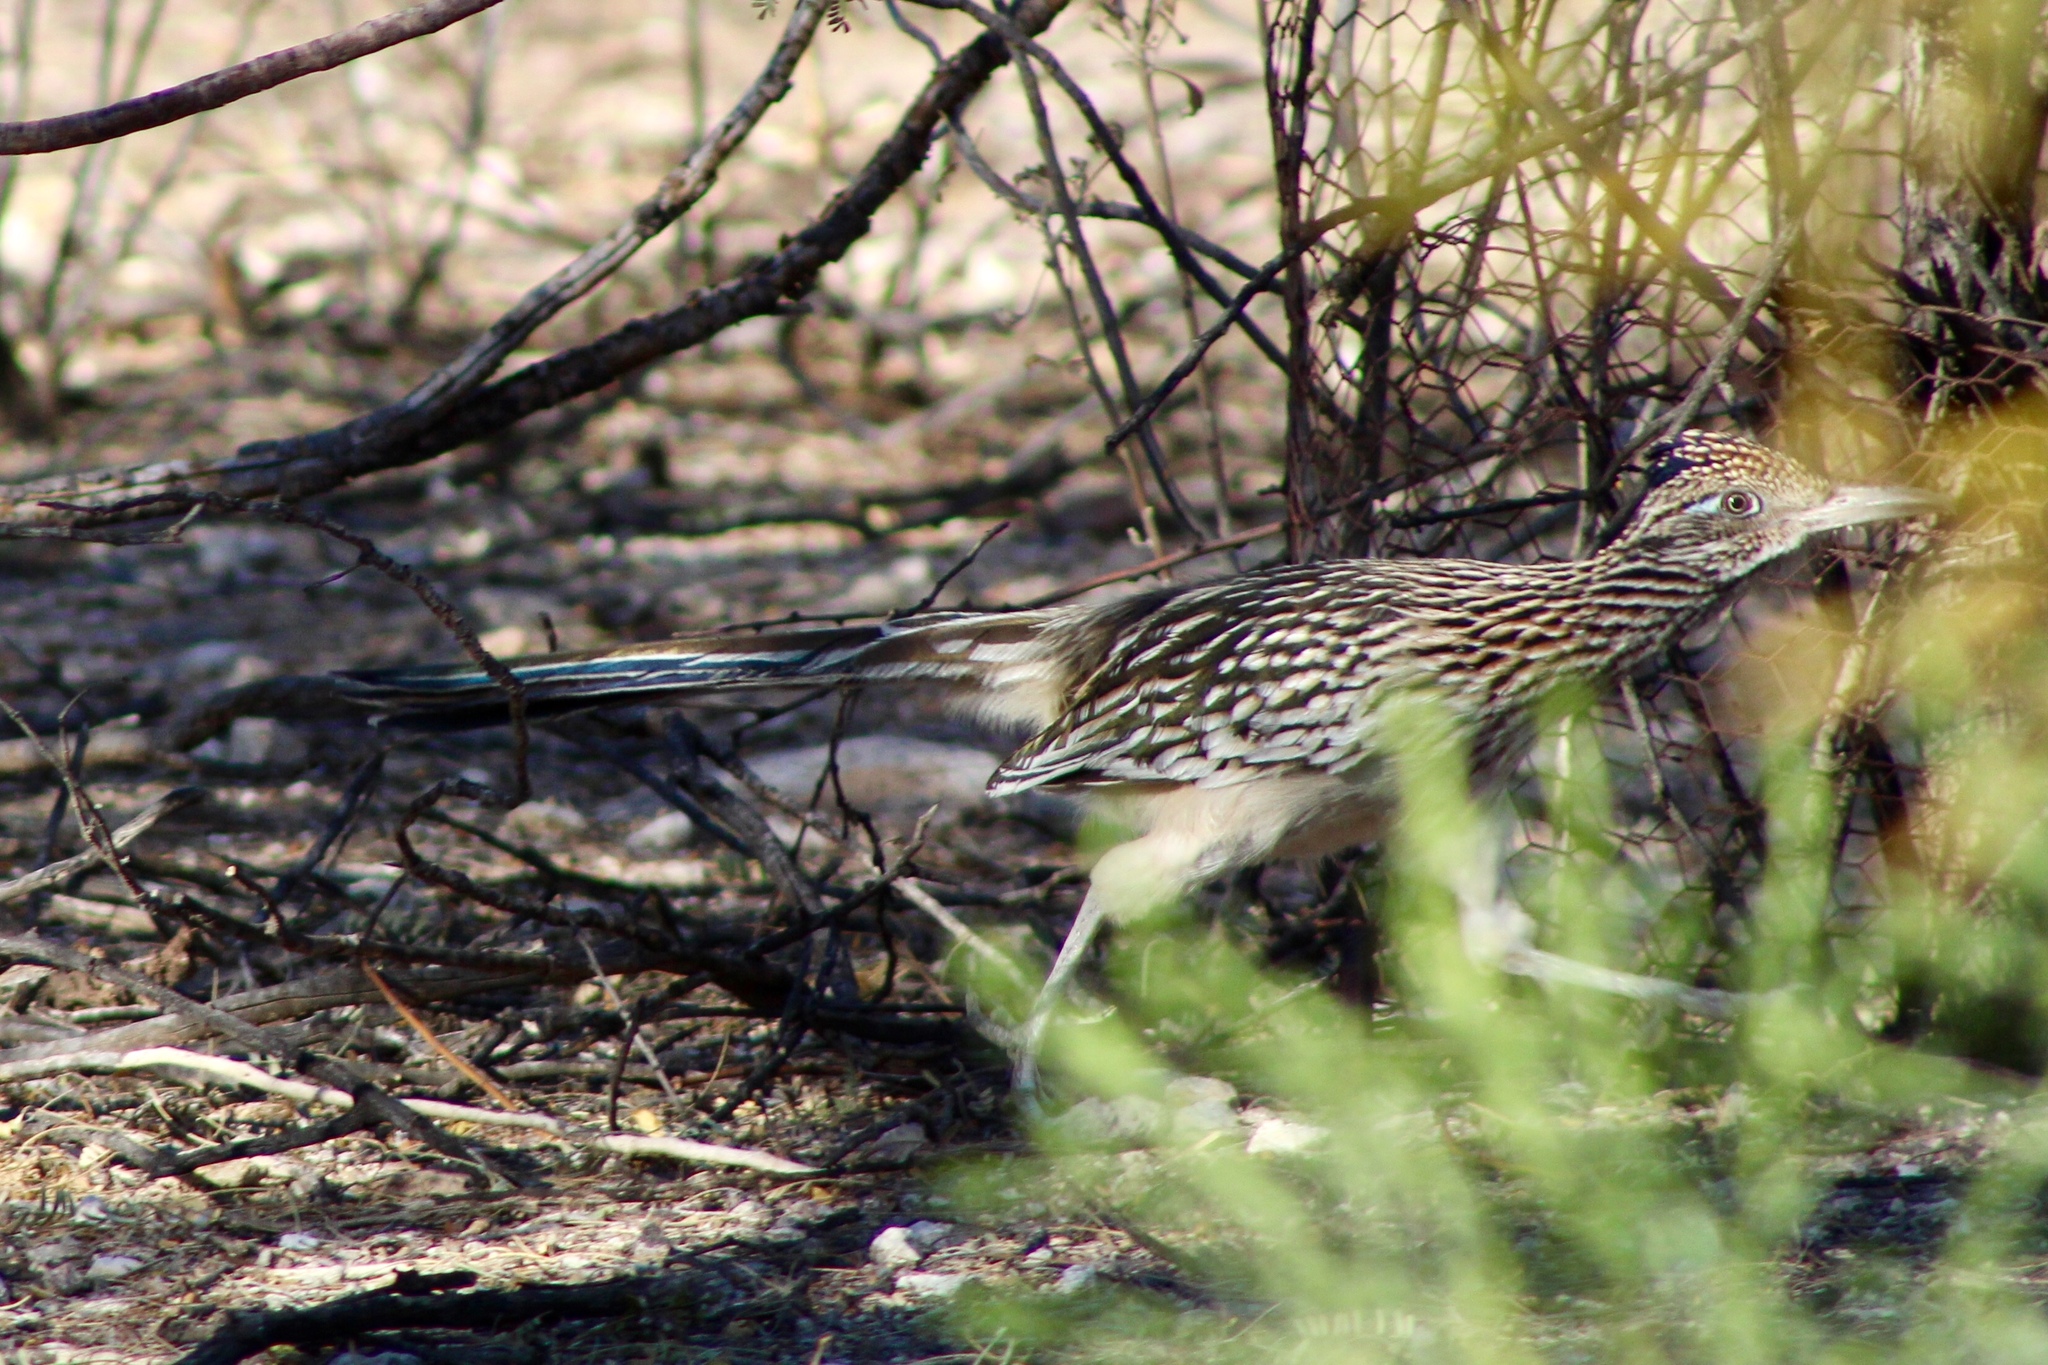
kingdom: Animalia
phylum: Chordata
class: Aves
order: Cuculiformes
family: Cuculidae
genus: Geococcyx
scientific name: Geococcyx californianus
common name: Greater roadrunner
